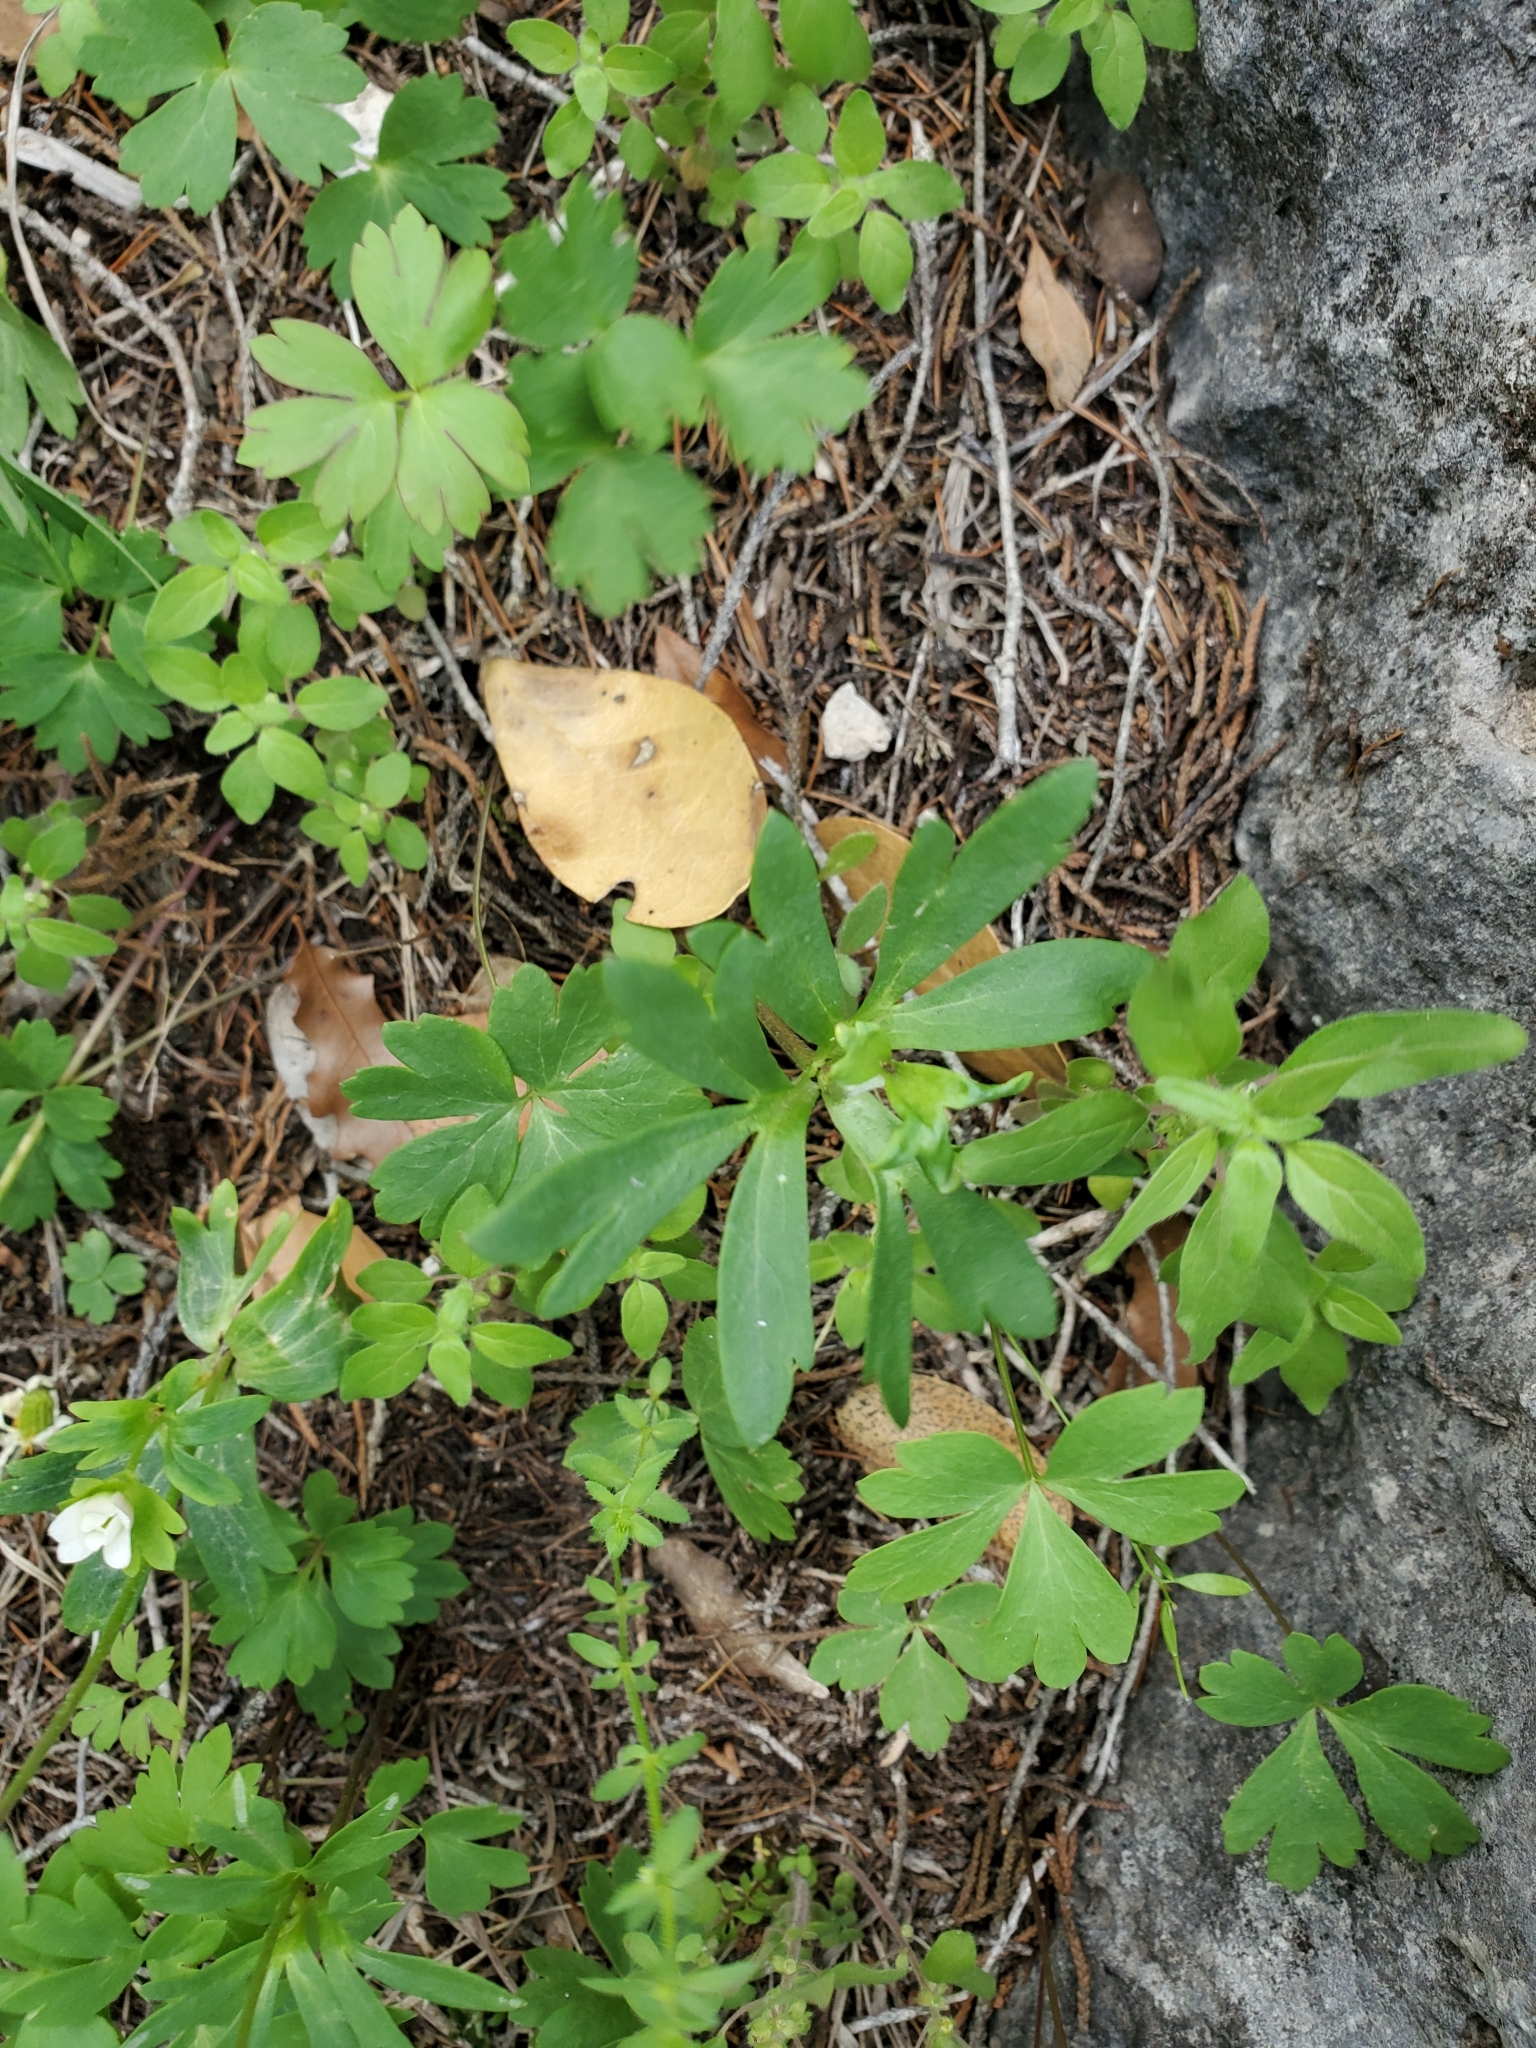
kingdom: Plantae
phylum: Tracheophyta
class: Magnoliopsida
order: Ranunculales
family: Ranunculaceae
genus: Anemone
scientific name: Anemone edwardsiana
